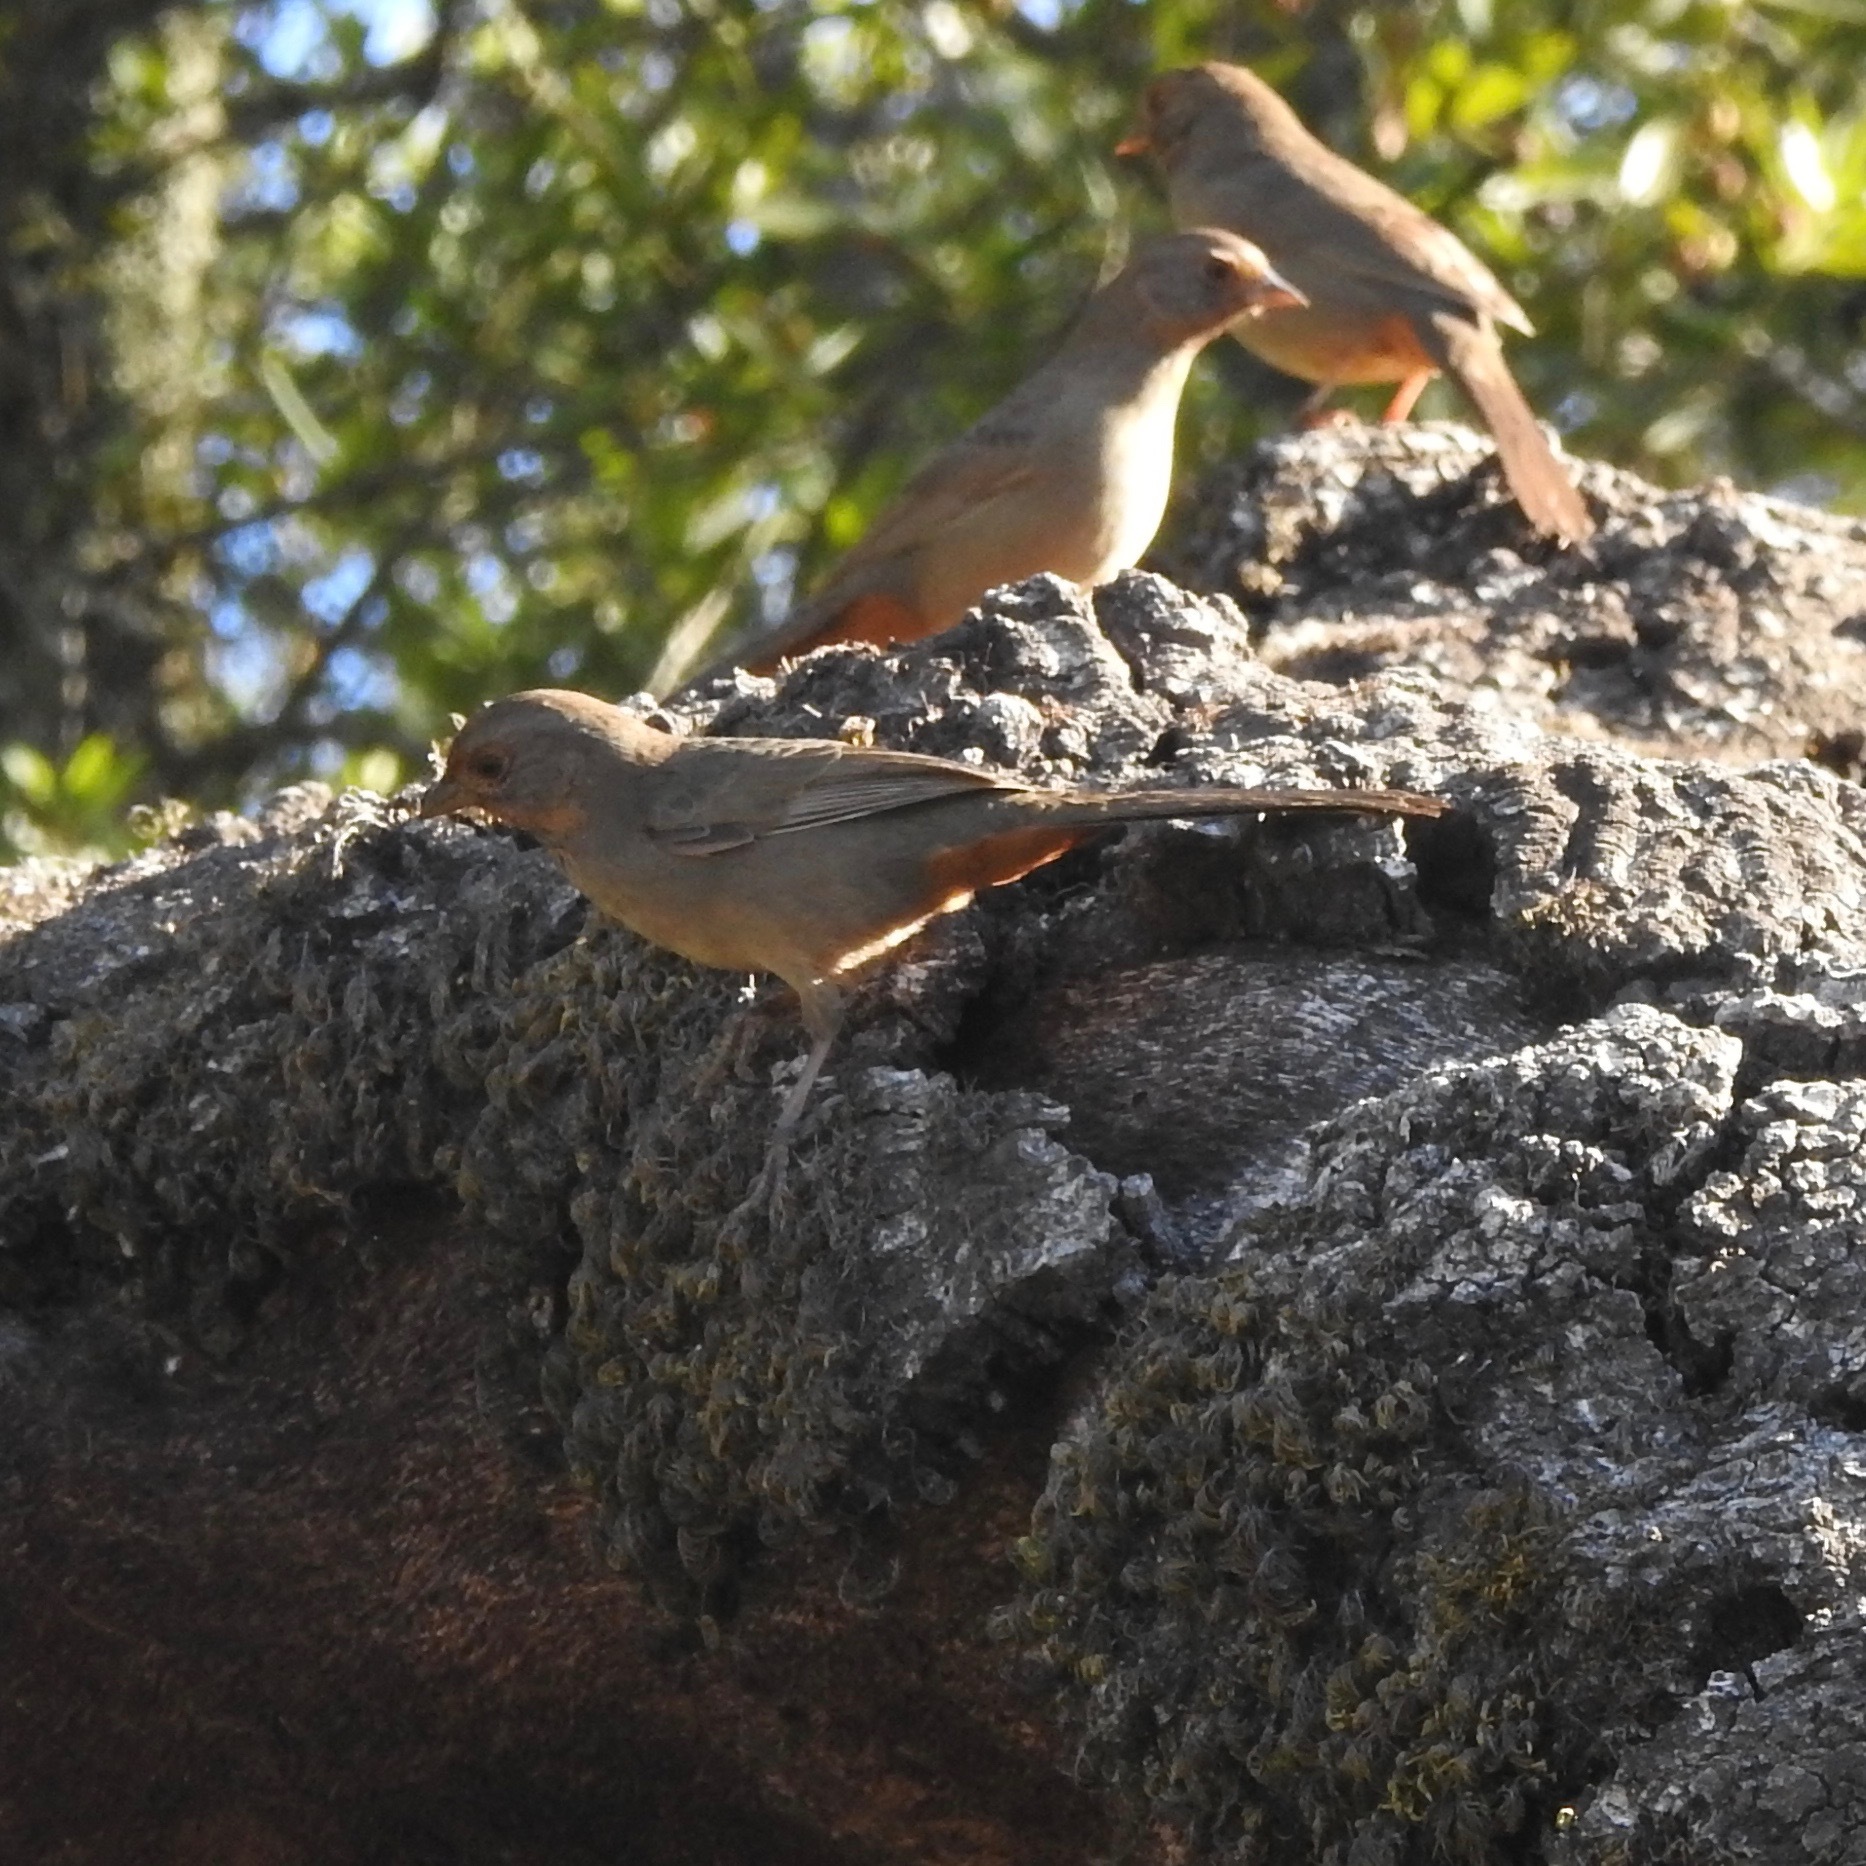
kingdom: Animalia
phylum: Chordata
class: Aves
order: Passeriformes
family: Passerellidae
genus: Melozone
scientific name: Melozone crissalis
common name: California towhee
